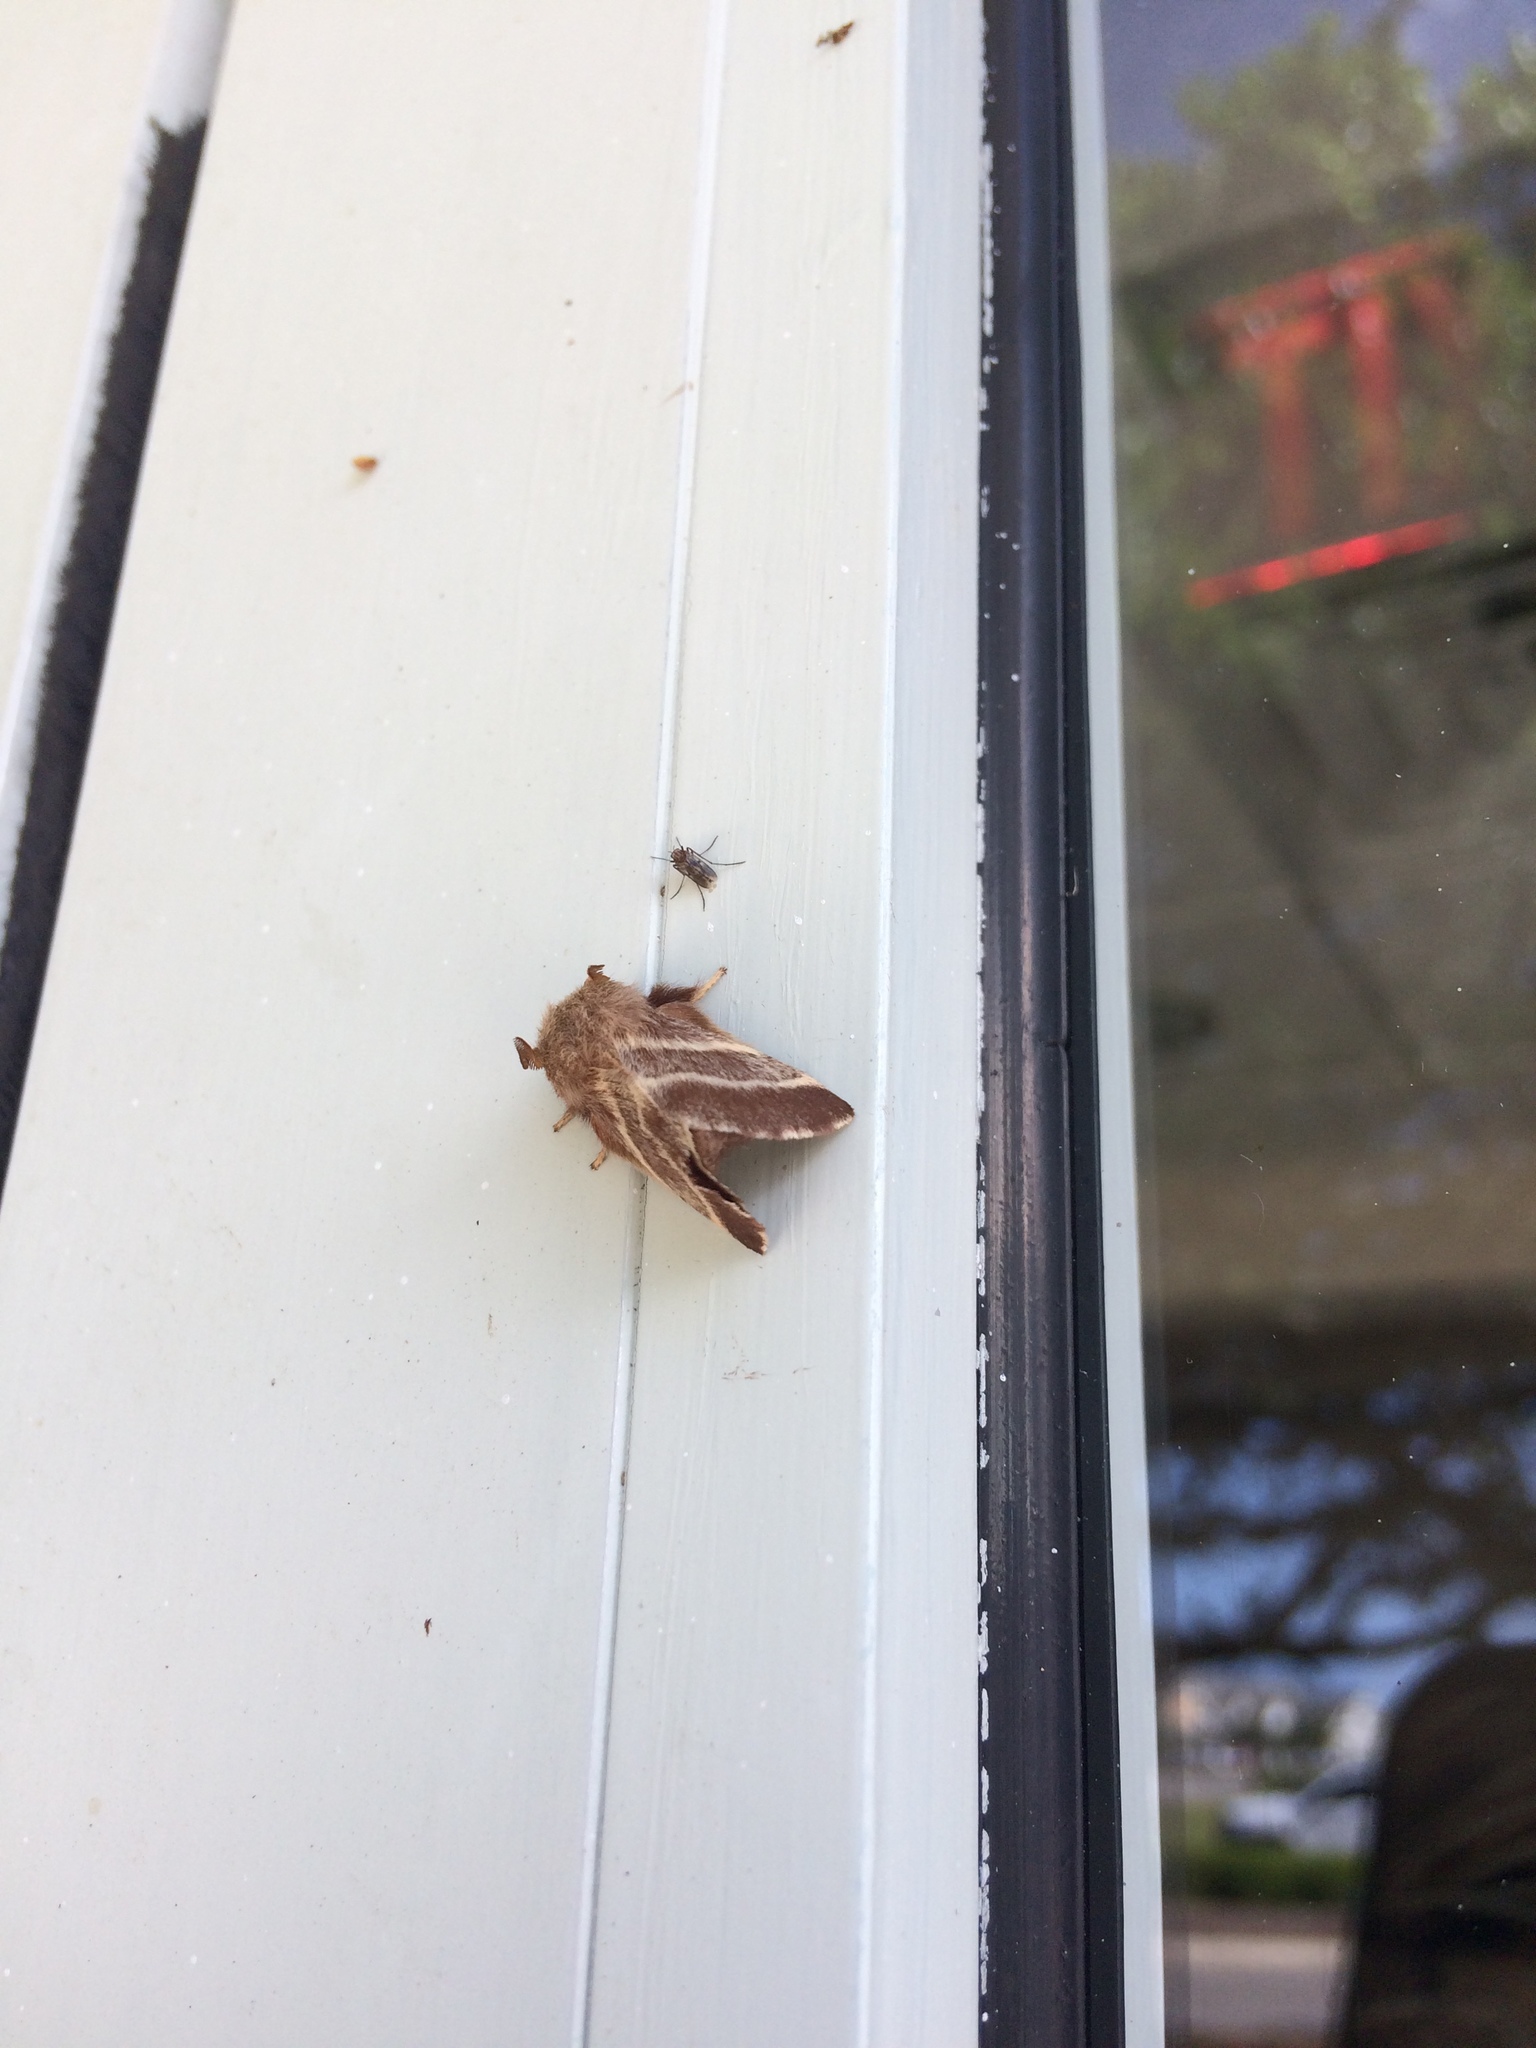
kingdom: Animalia
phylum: Arthropoda
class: Insecta
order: Lepidoptera
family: Lasiocampidae
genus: Malacosoma
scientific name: Malacosoma americana
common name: Eastern tent caterpillar moth
